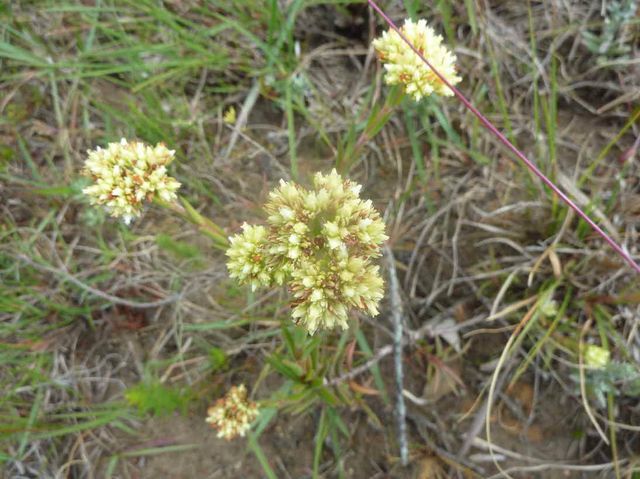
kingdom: Plantae
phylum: Tracheophyta
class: Magnoliopsida
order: Saxifragales
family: Crassulaceae
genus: Crassula
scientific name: Crassula subulata
